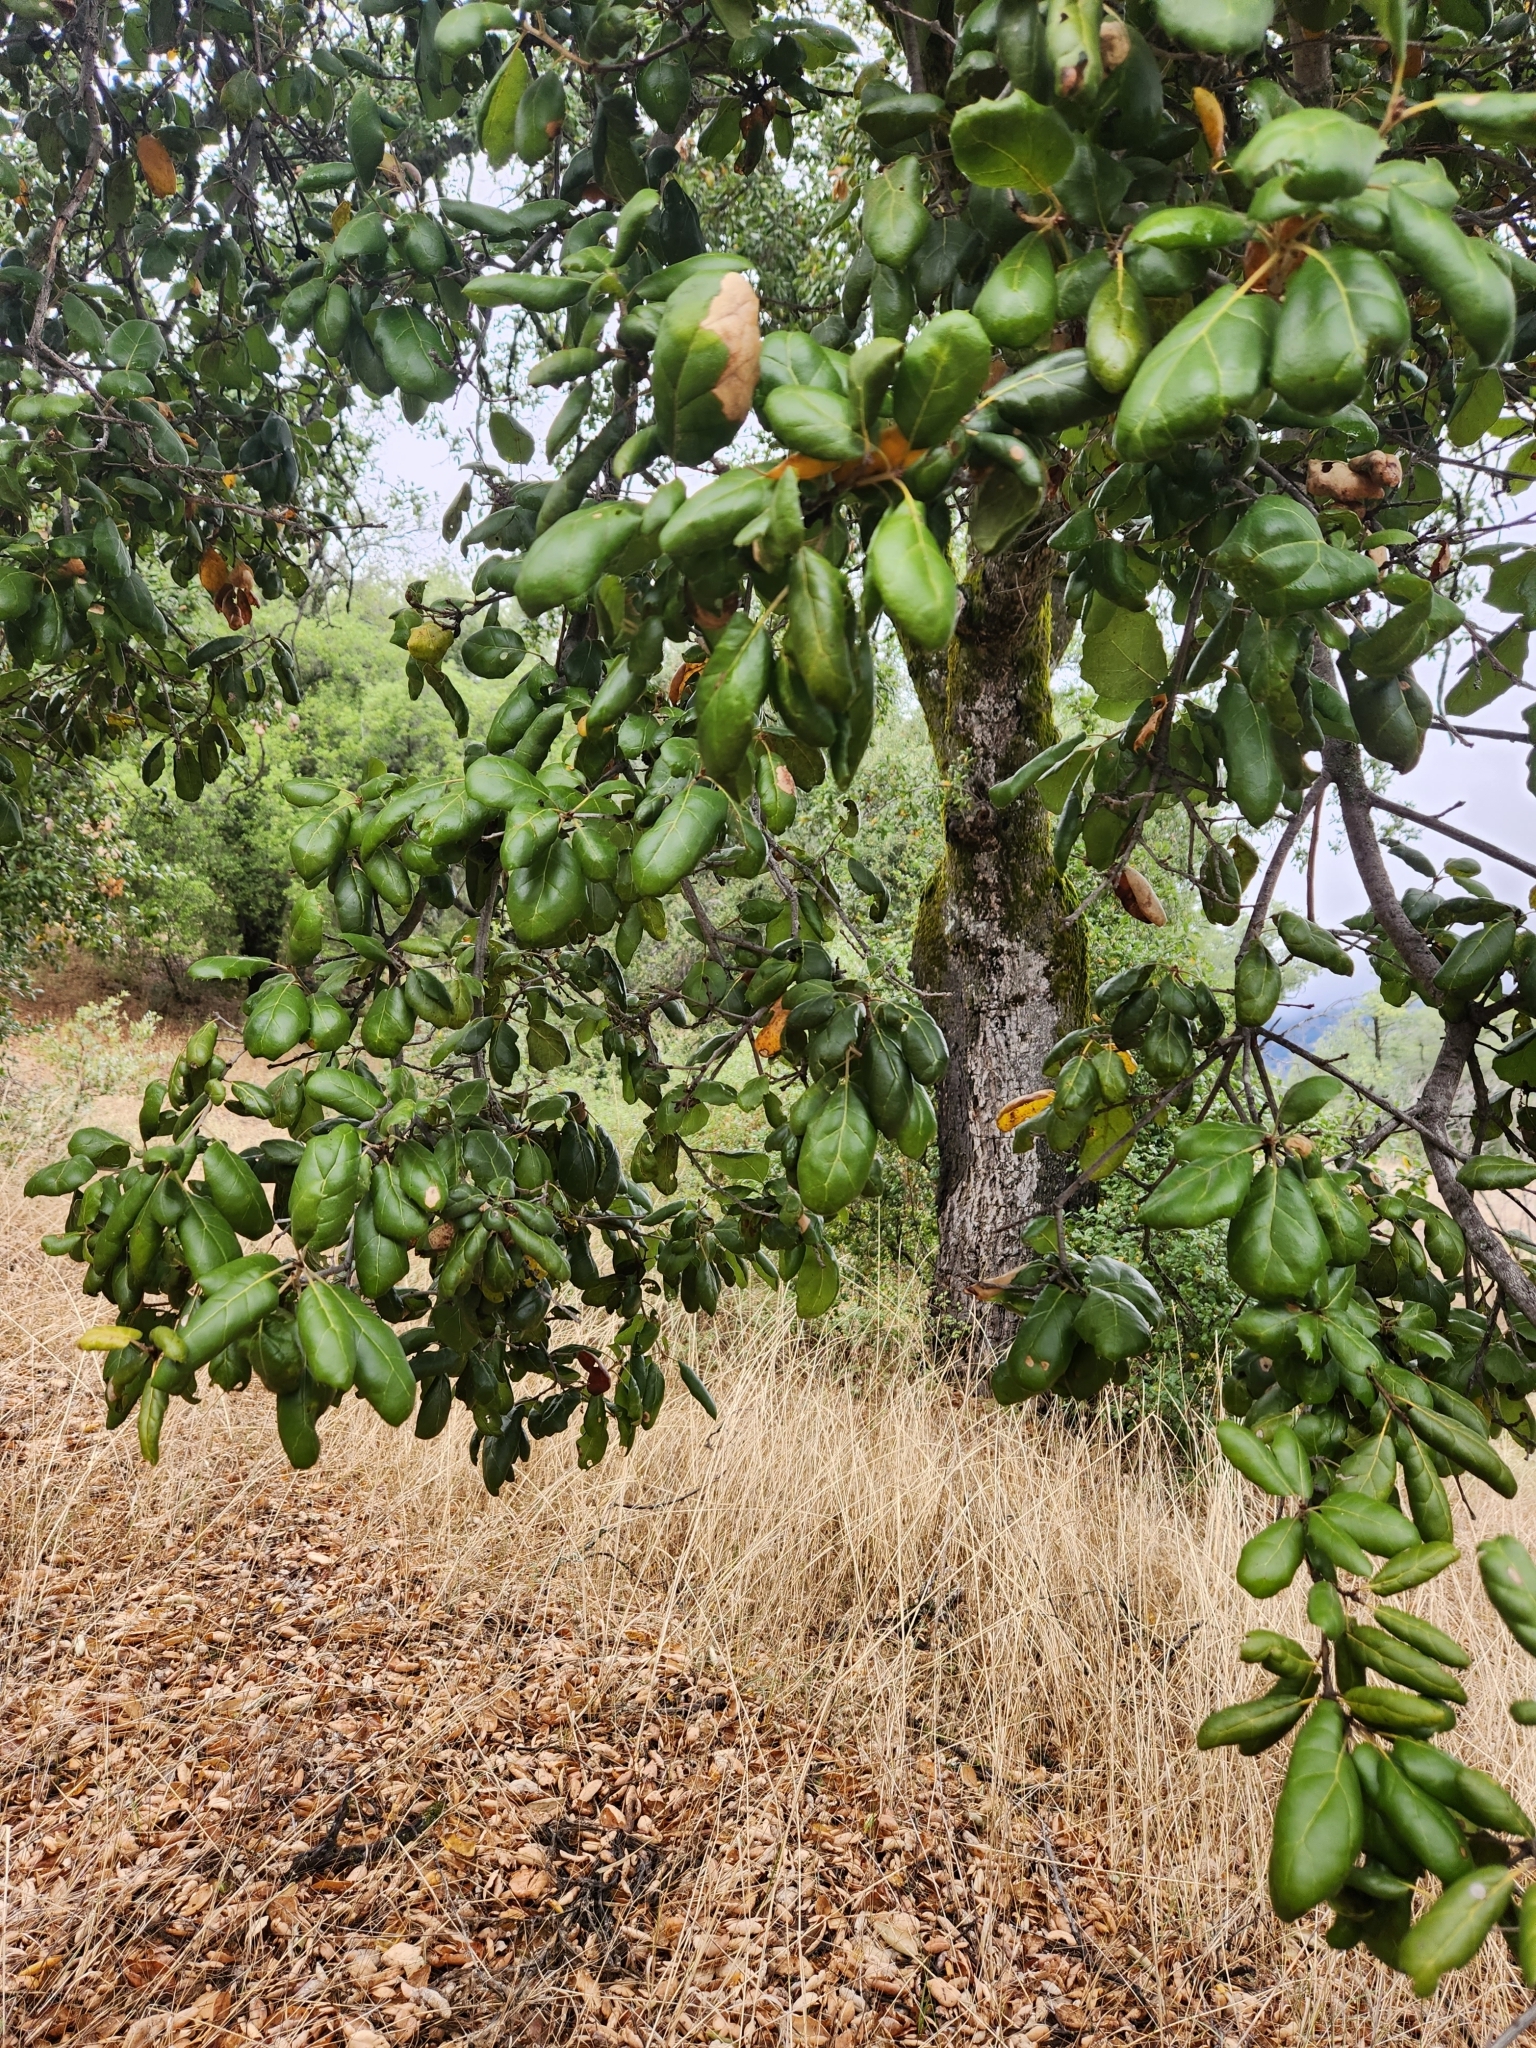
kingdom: Plantae
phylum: Tracheophyta
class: Magnoliopsida
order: Fagales
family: Fagaceae
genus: Quercus
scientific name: Quercus agrifolia
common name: California live oak
